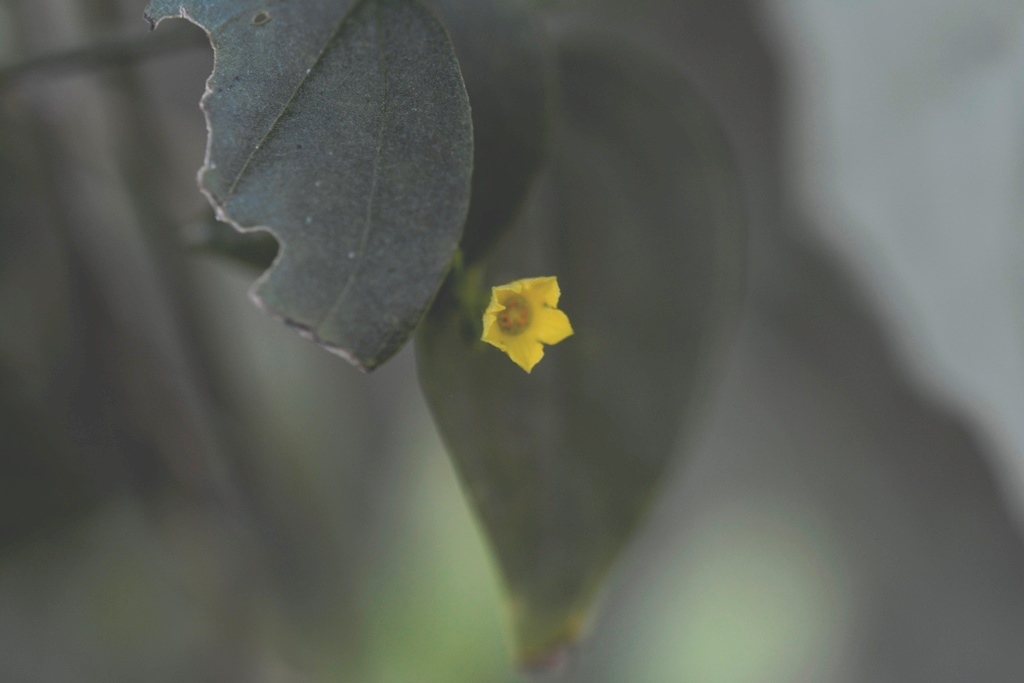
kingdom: Plantae
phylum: Tracheophyta
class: Magnoliopsida
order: Cucurbitales
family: Cucurbitaceae
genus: Melothria
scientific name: Melothria pendula
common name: Creeping-cucumber
